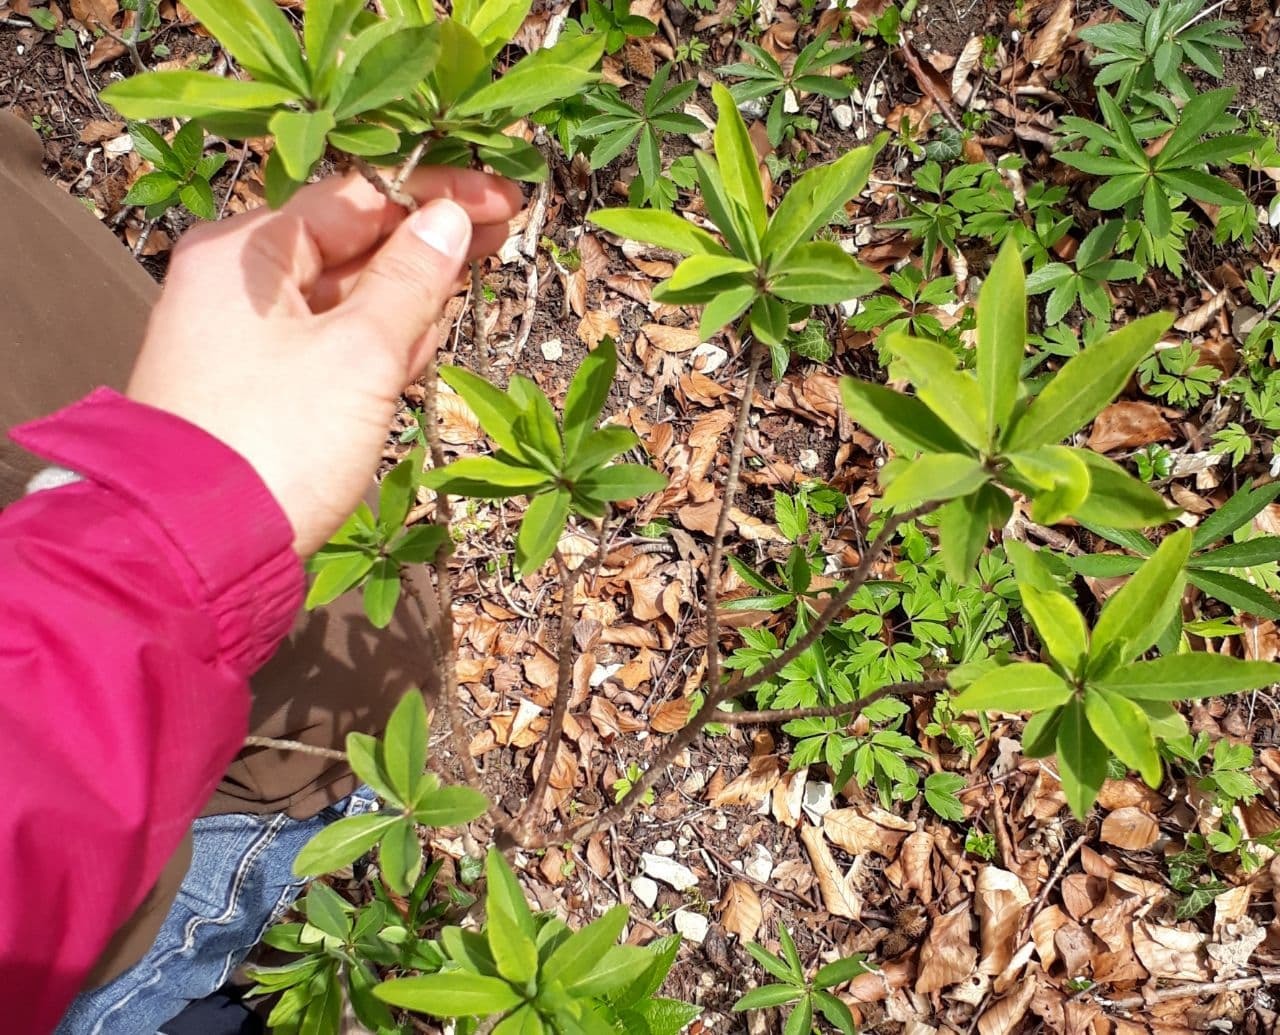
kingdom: Plantae
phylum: Tracheophyta
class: Magnoliopsida
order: Malvales
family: Thymelaeaceae
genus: Daphne
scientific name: Daphne mezereum
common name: Mezereon
